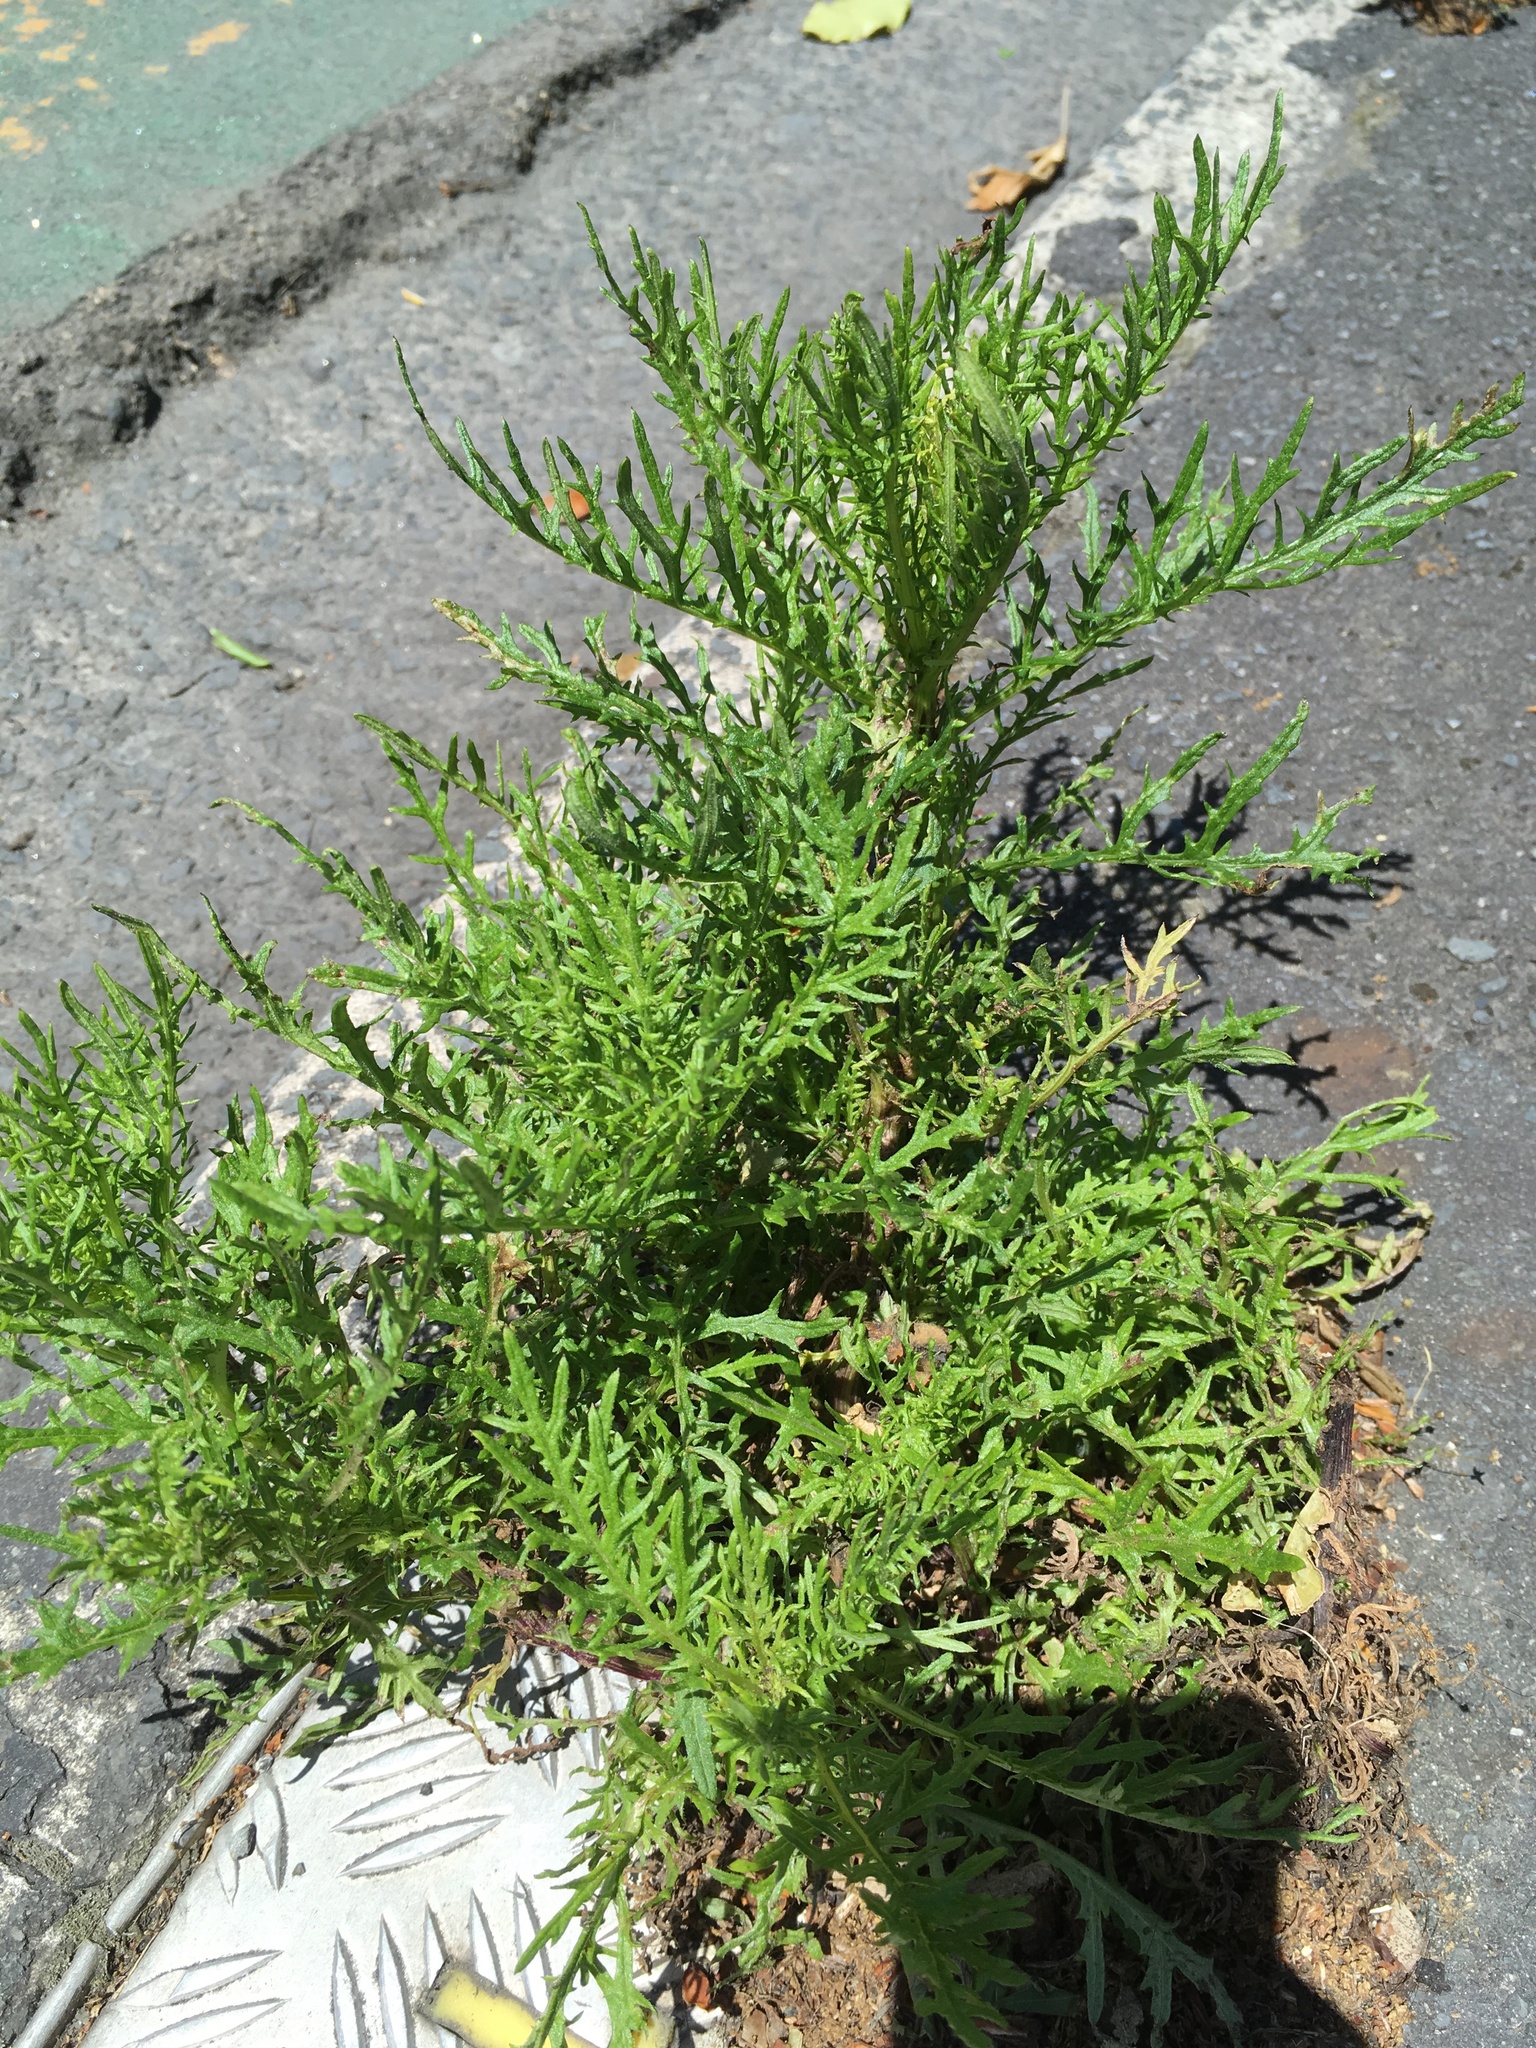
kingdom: Plantae
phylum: Tracheophyta
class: Magnoliopsida
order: Asterales
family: Asteraceae
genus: Senecio
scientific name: Senecio bipinnatisectus
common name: Australian fireweed
